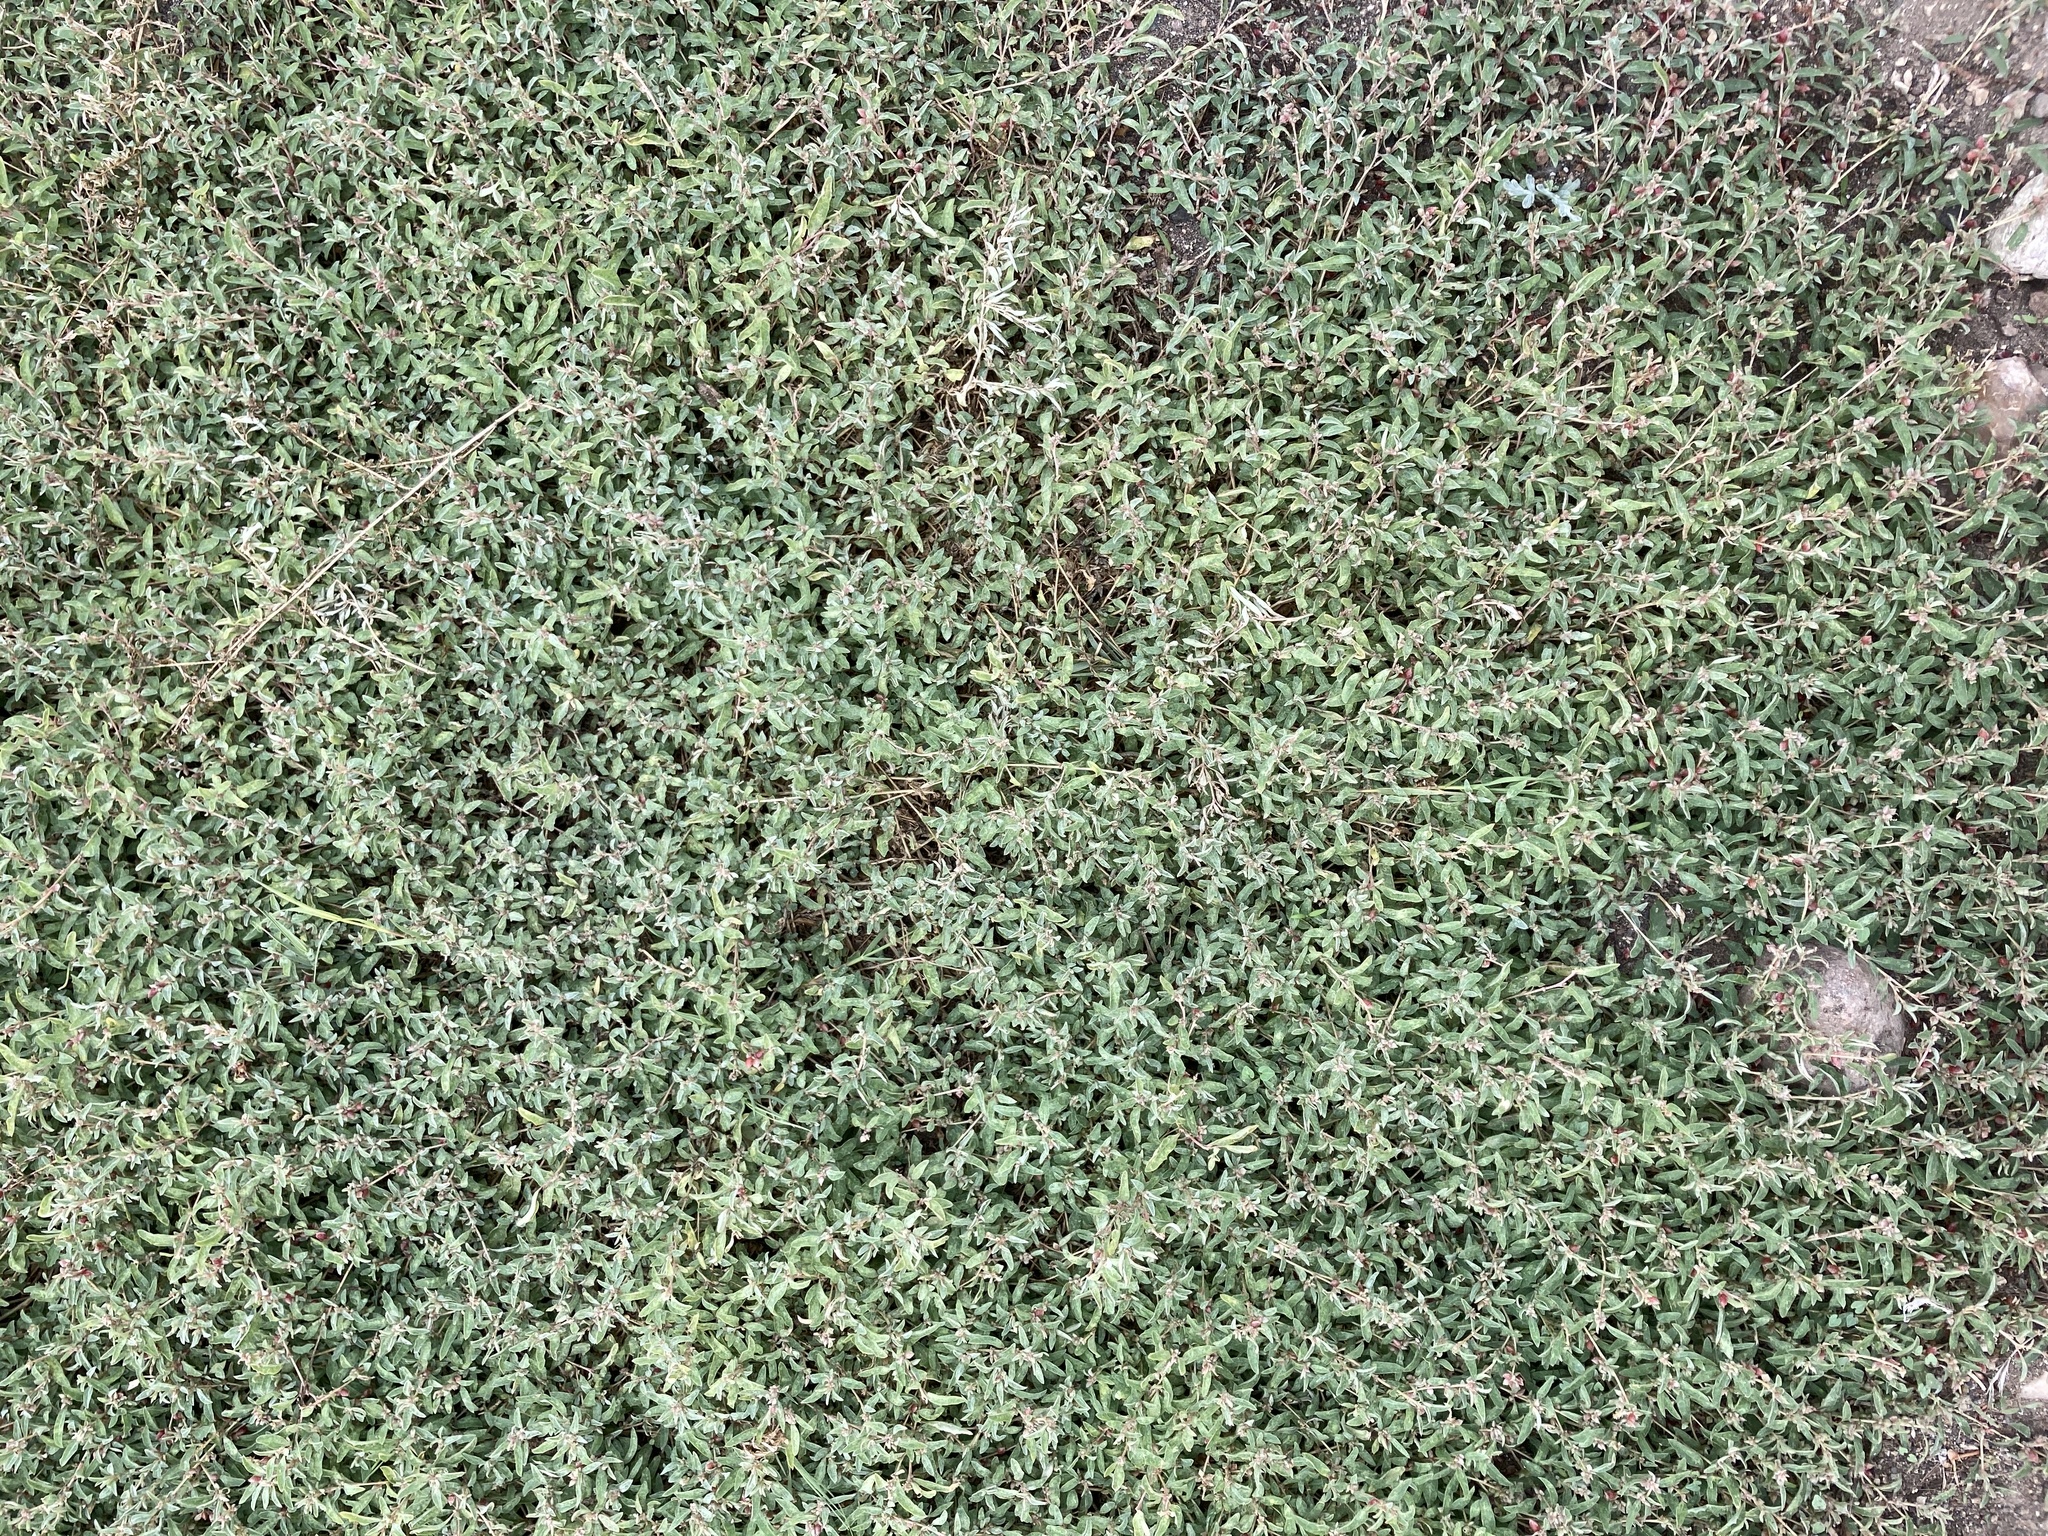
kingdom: Plantae
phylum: Tracheophyta
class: Magnoliopsida
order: Caryophyllales
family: Amaranthaceae
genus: Atriplex
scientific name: Atriplex semibaccata
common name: Australian saltbush
